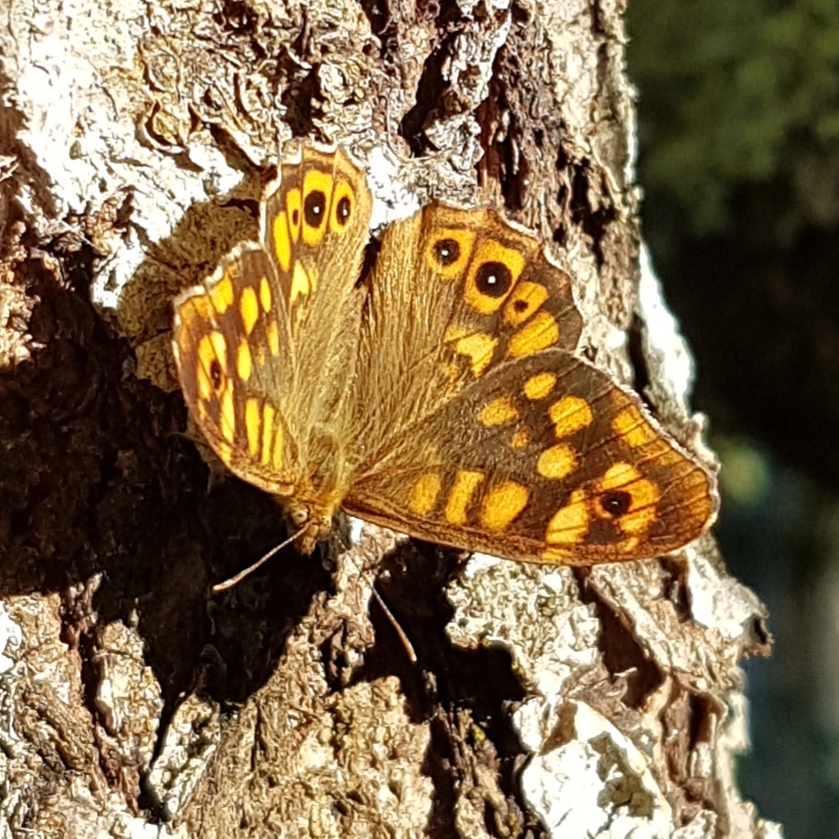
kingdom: Animalia
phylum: Arthropoda
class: Insecta
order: Lepidoptera
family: Nymphalidae
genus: Pararge
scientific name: Pararge aegeria
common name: Speckled wood
